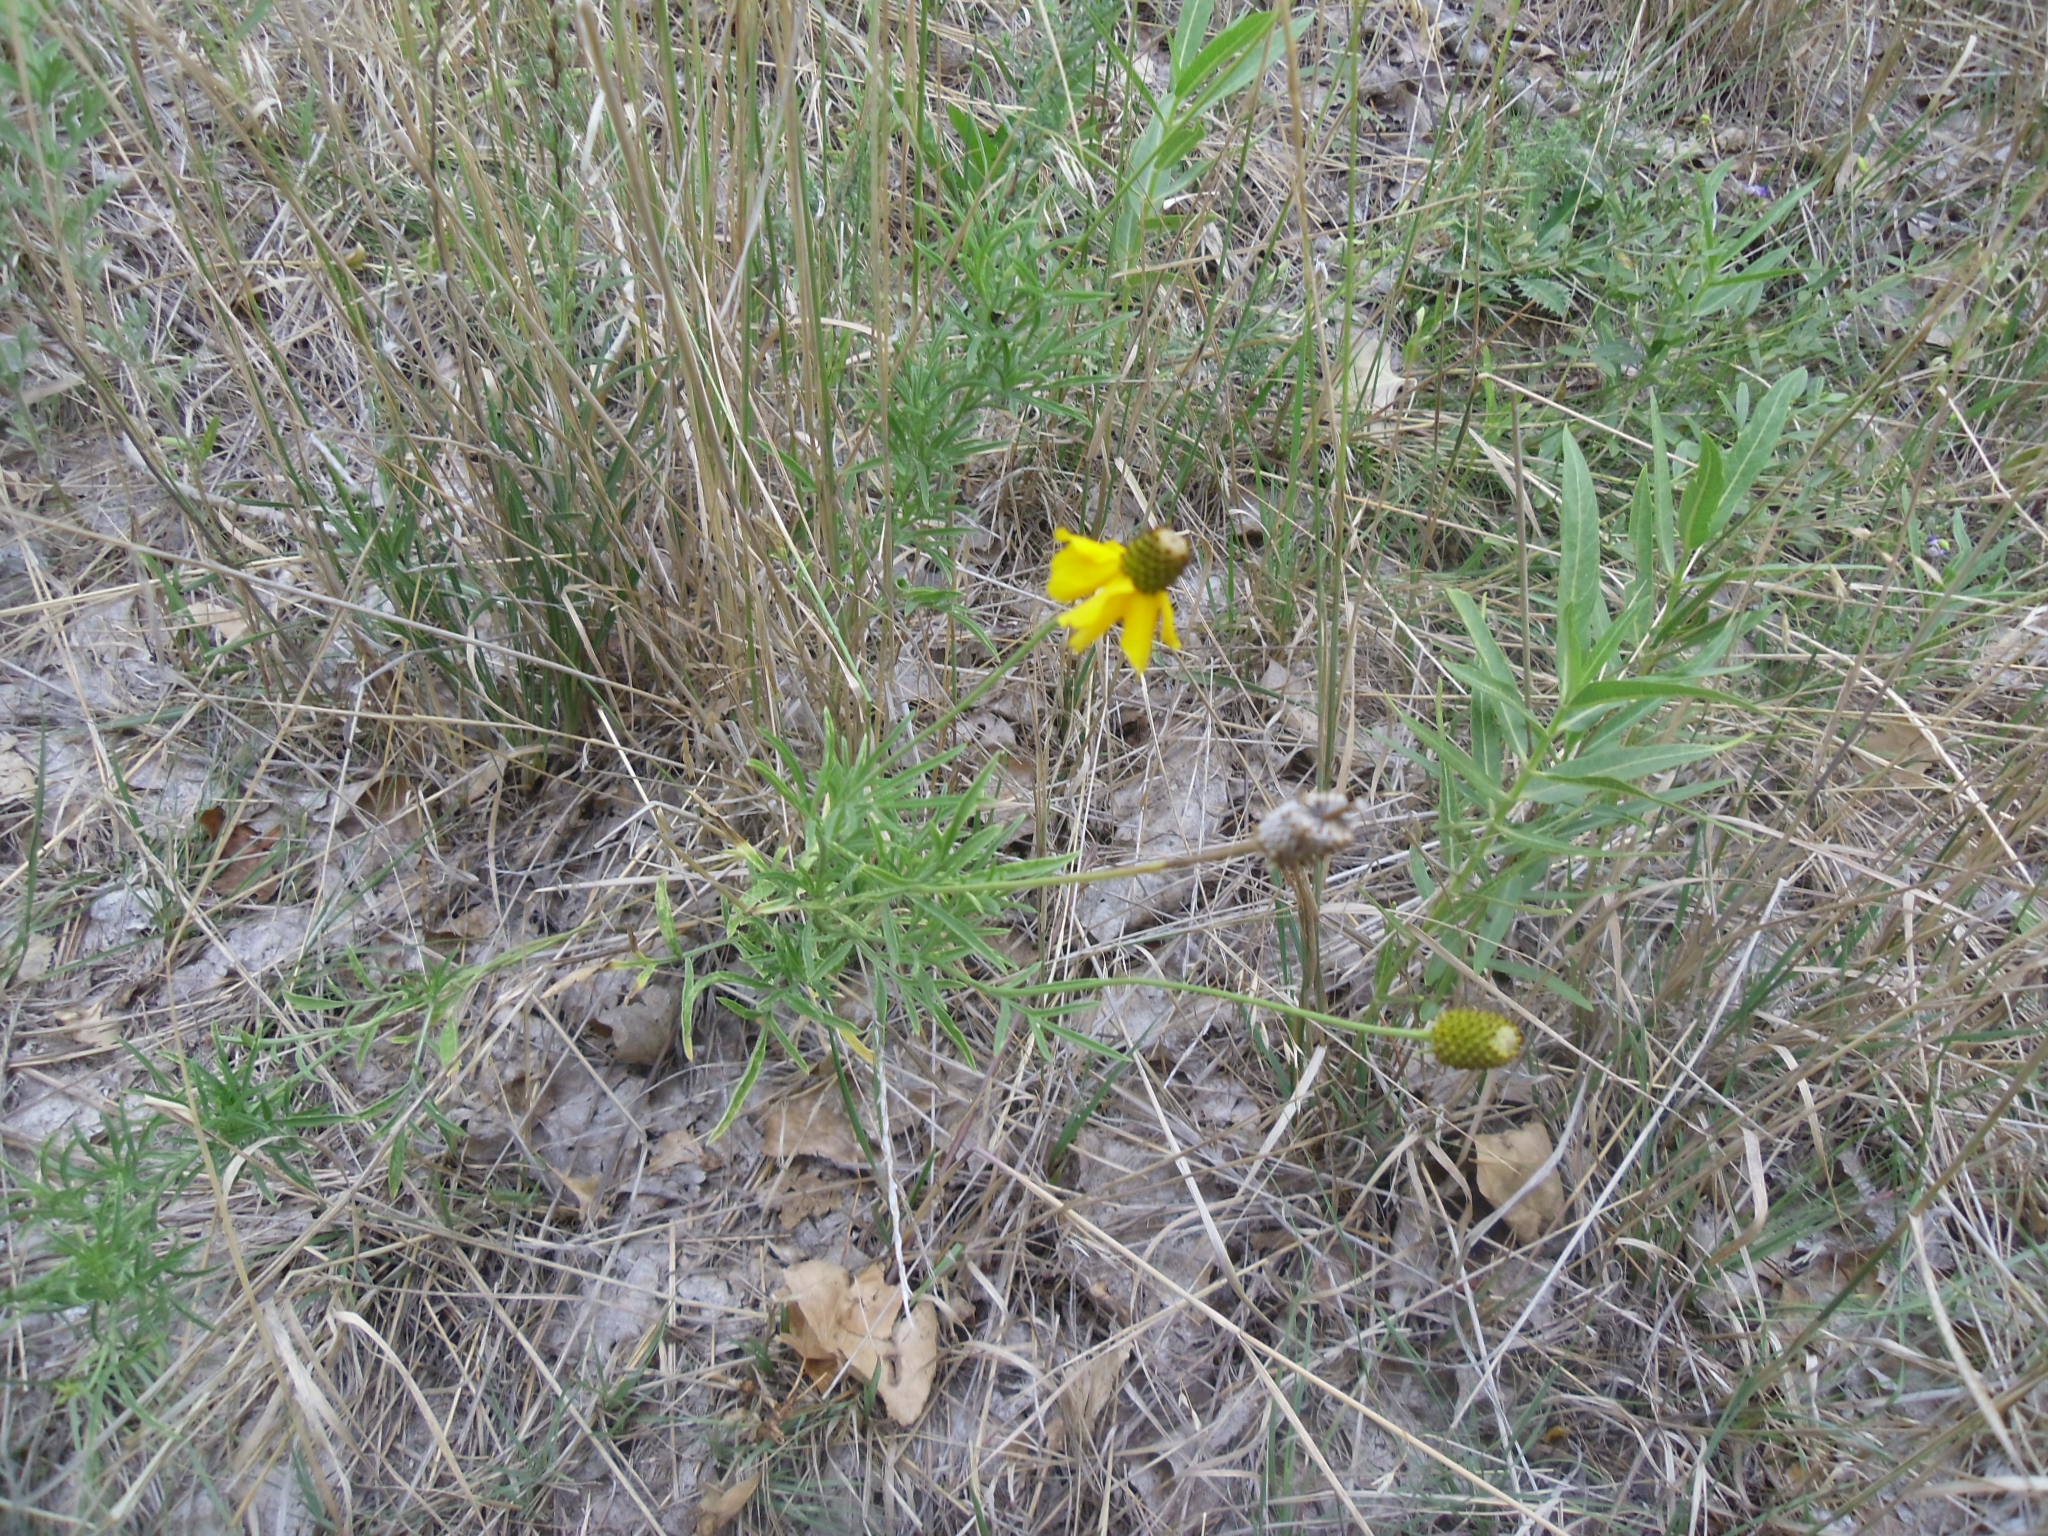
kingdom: Plantae
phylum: Tracheophyta
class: Magnoliopsida
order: Asterales
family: Asteraceae
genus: Ratibida
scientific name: Ratibida columnifera
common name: Prairie coneflower
